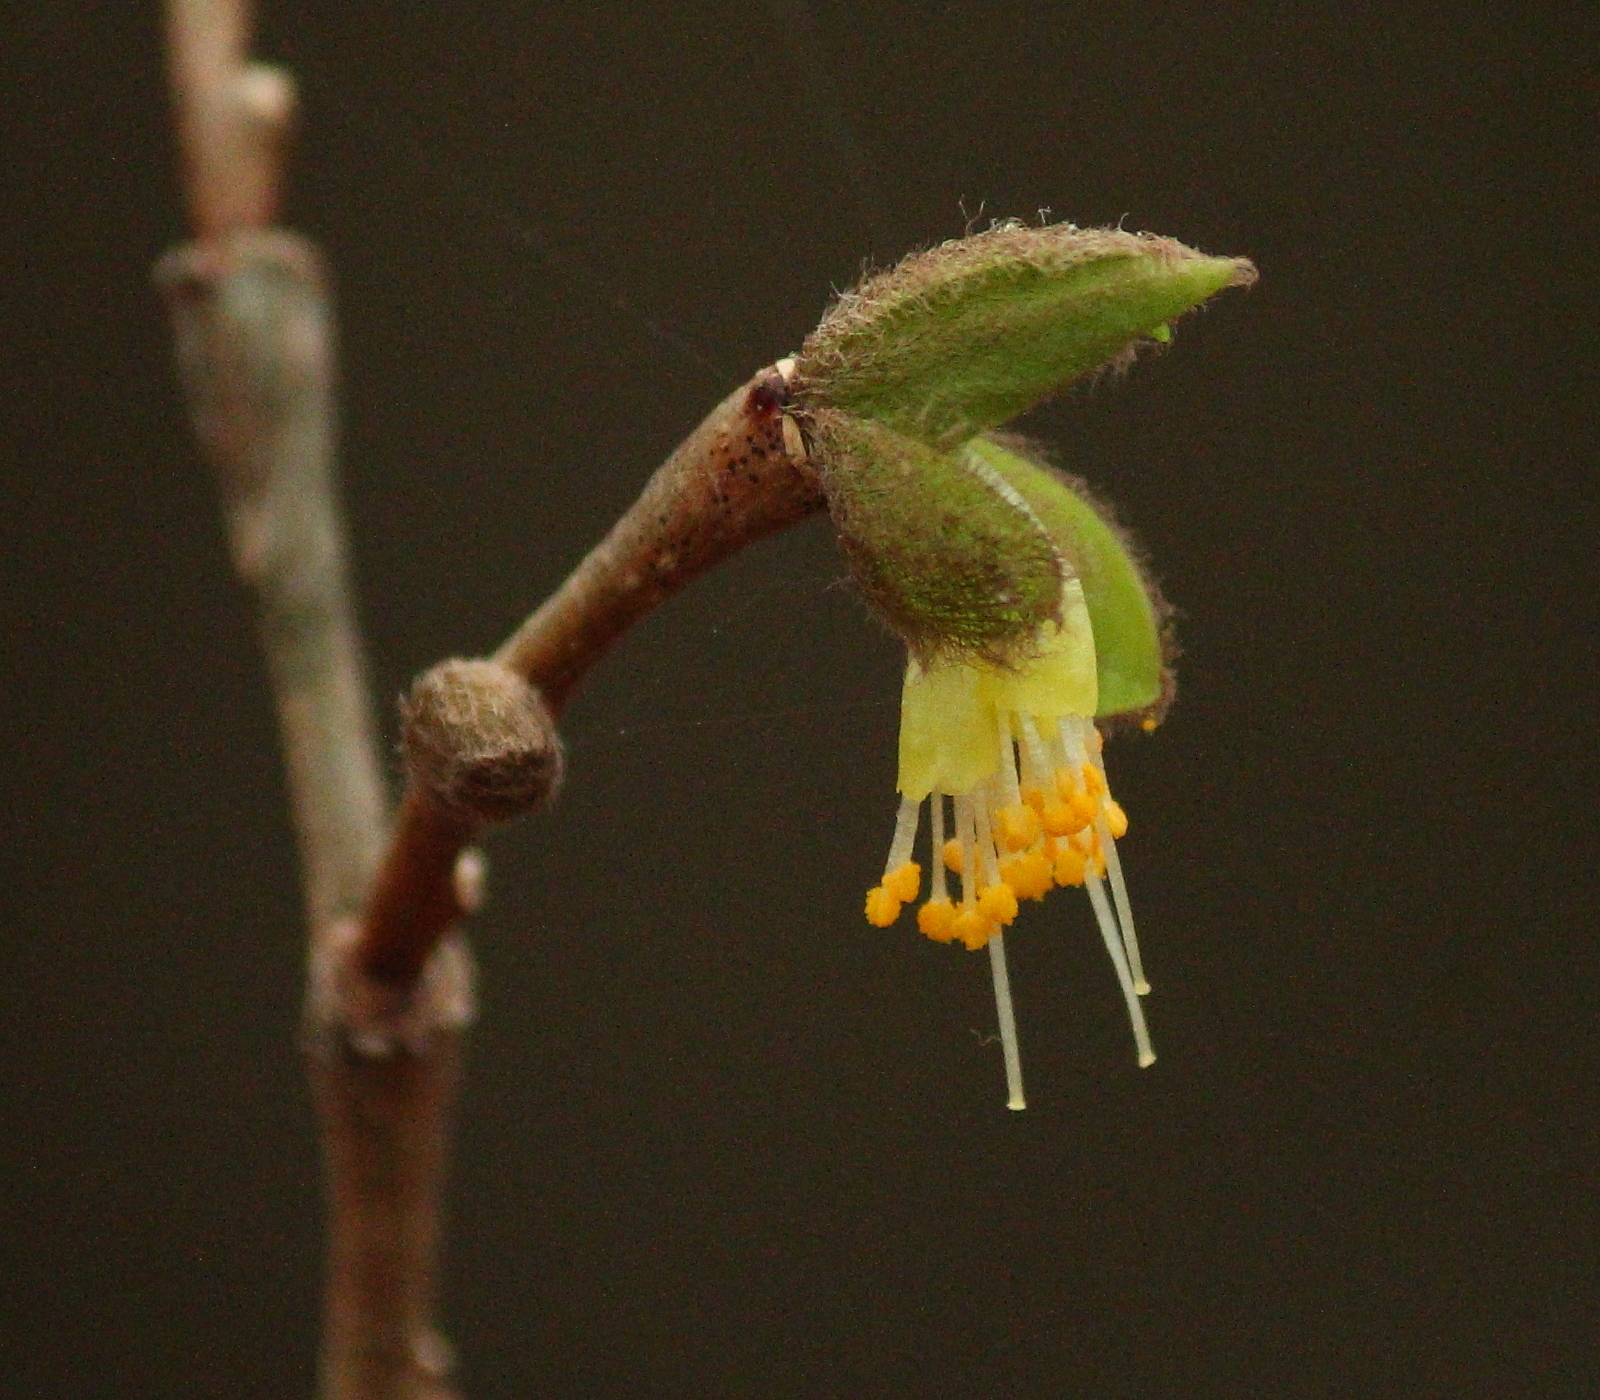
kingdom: Plantae
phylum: Tracheophyta
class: Magnoliopsida
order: Malvales
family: Thymelaeaceae
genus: Dirca
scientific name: Dirca palustris
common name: Leatherwood
